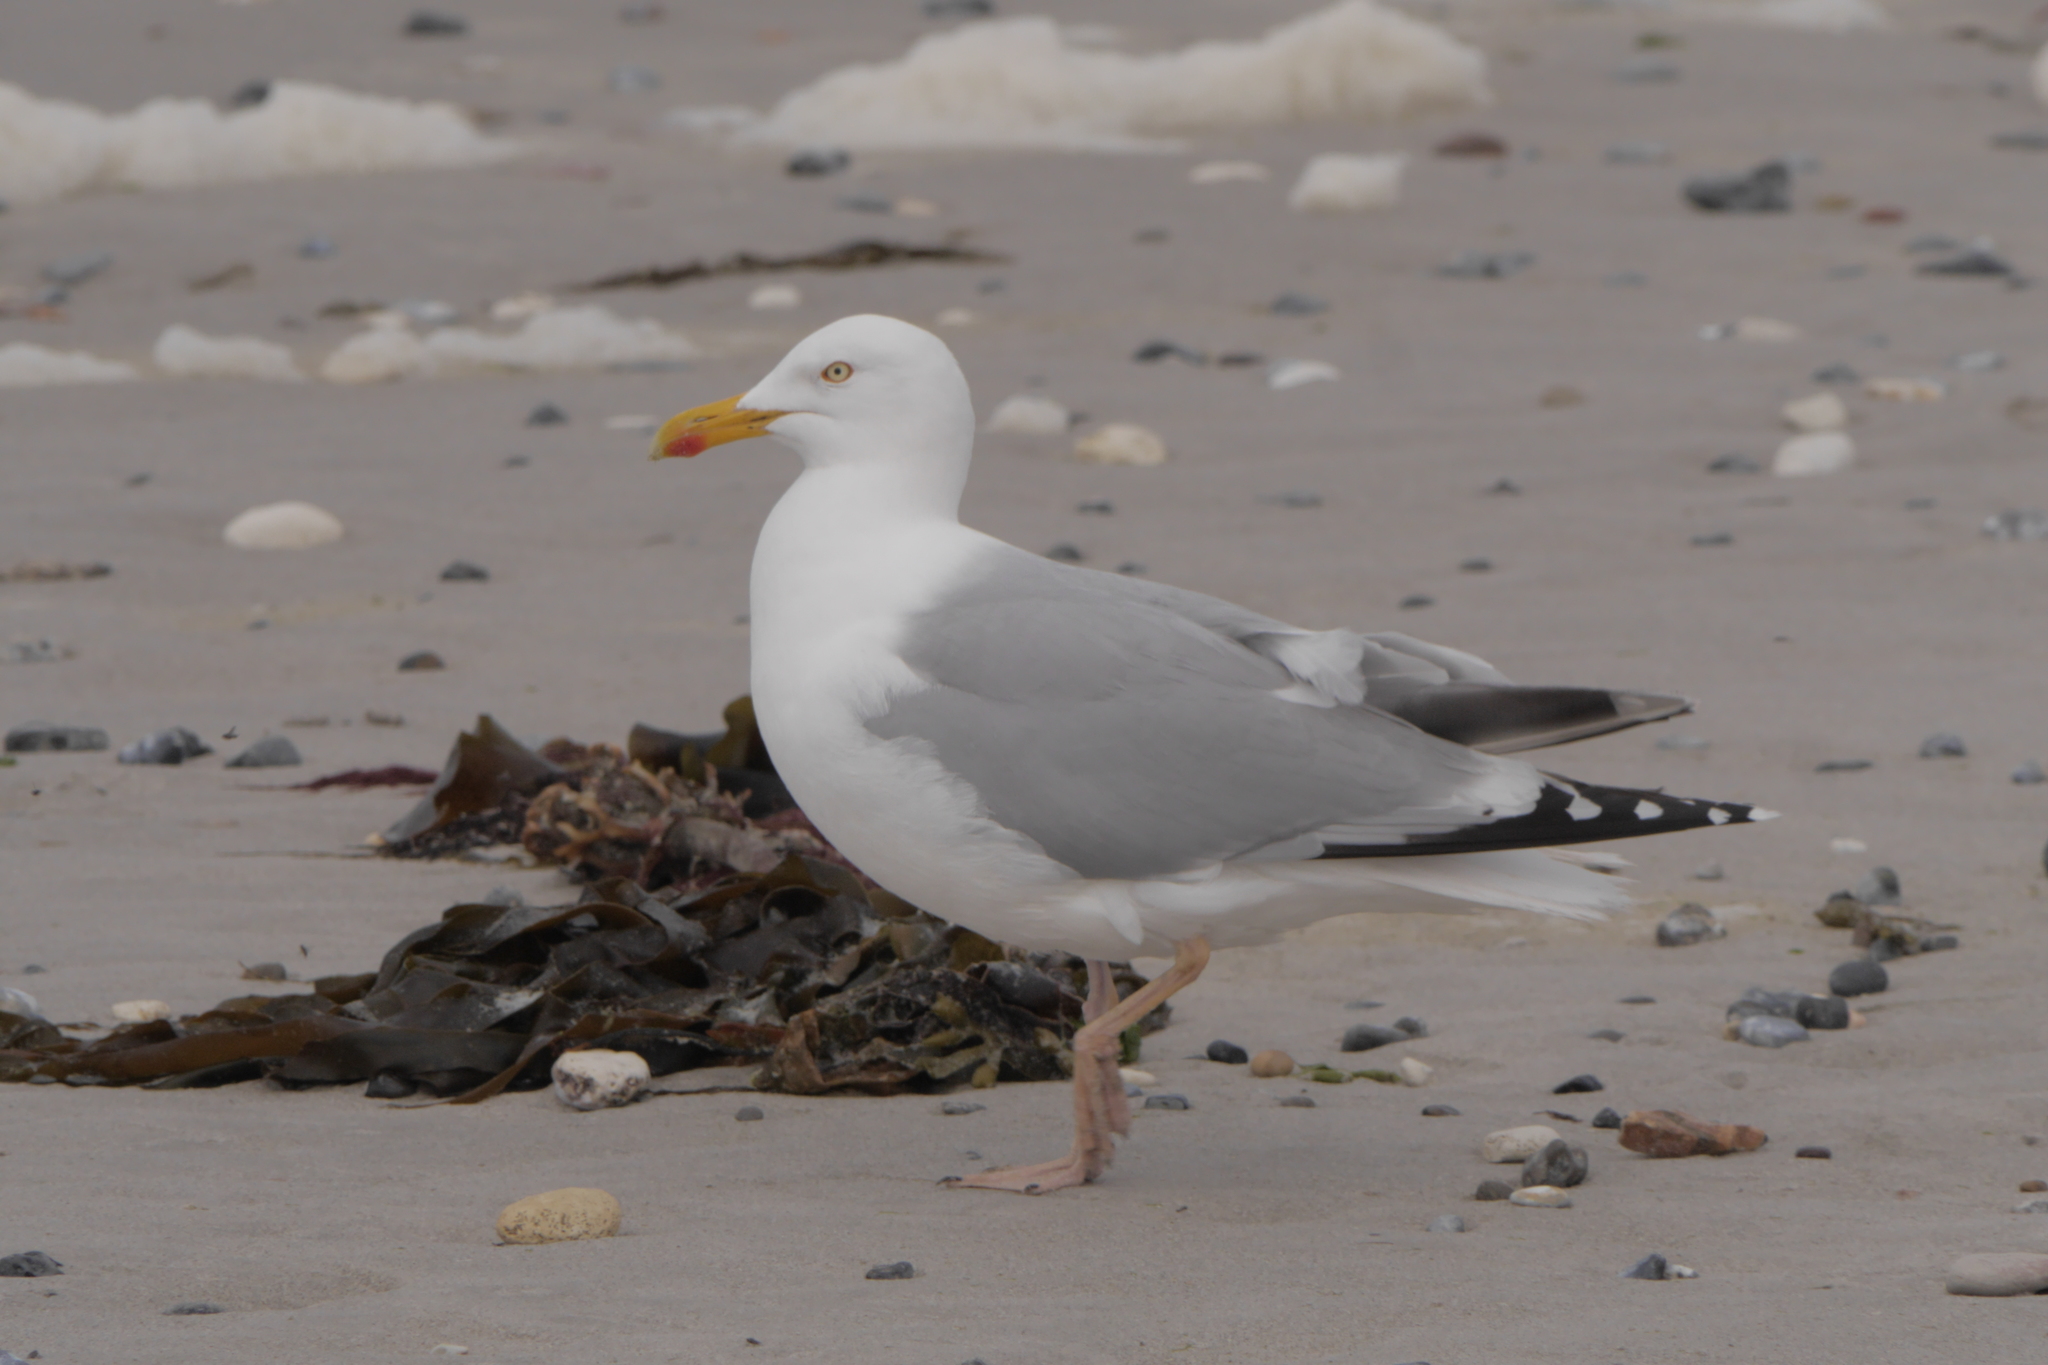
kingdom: Animalia
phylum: Chordata
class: Aves
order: Charadriiformes
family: Laridae
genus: Larus
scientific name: Larus argentatus
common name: Herring gull
